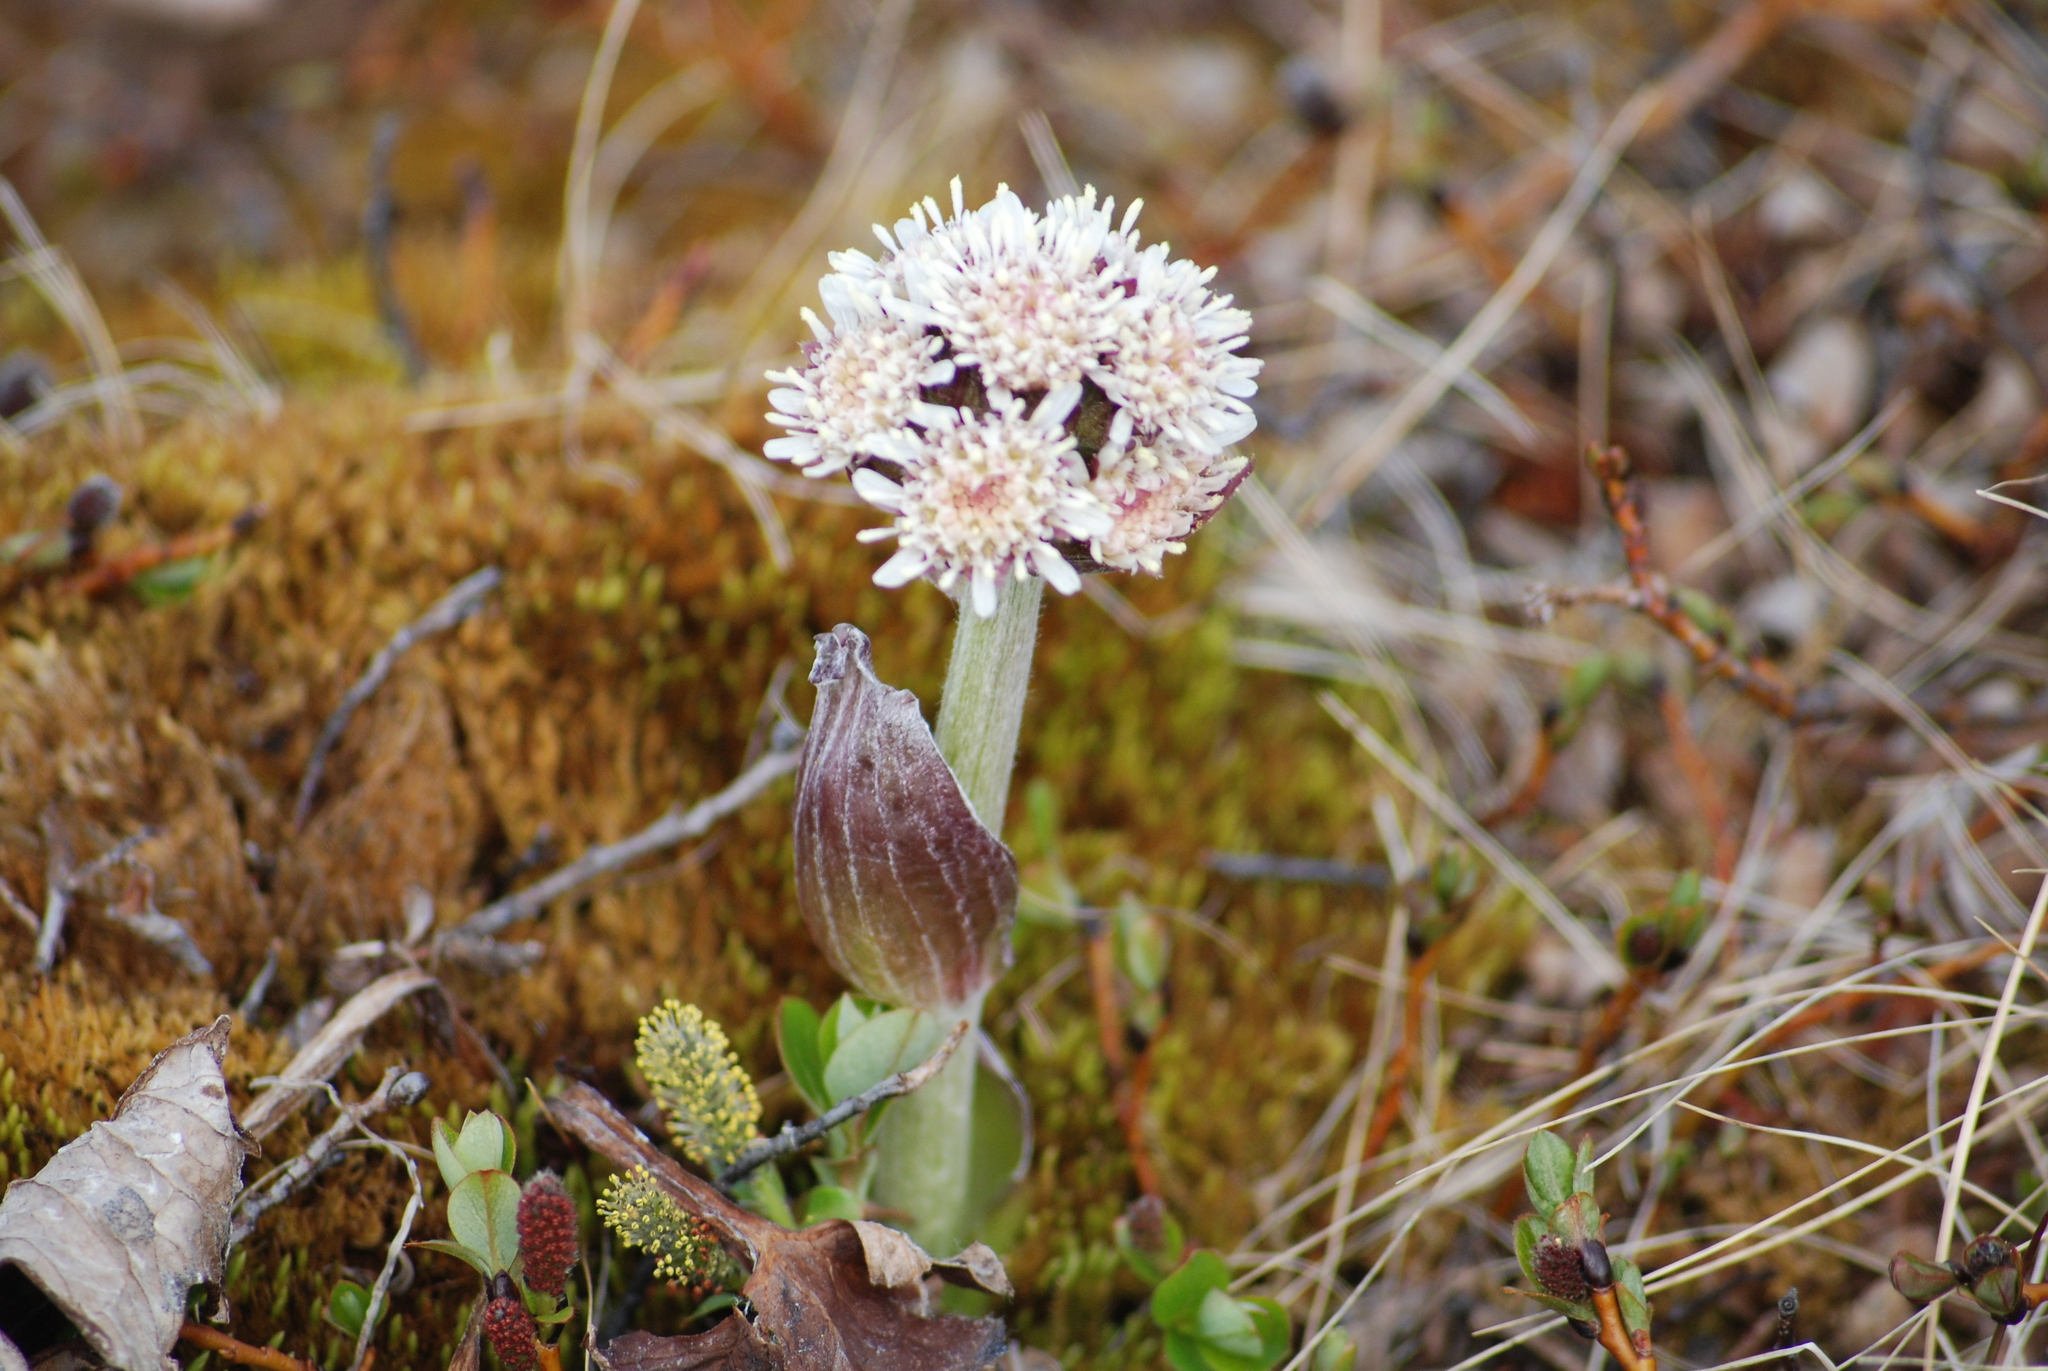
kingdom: Plantae
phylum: Tracheophyta
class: Magnoliopsida
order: Asterales
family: Asteraceae
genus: Petasites
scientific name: Petasites frigidus
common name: Arctic butterbur
